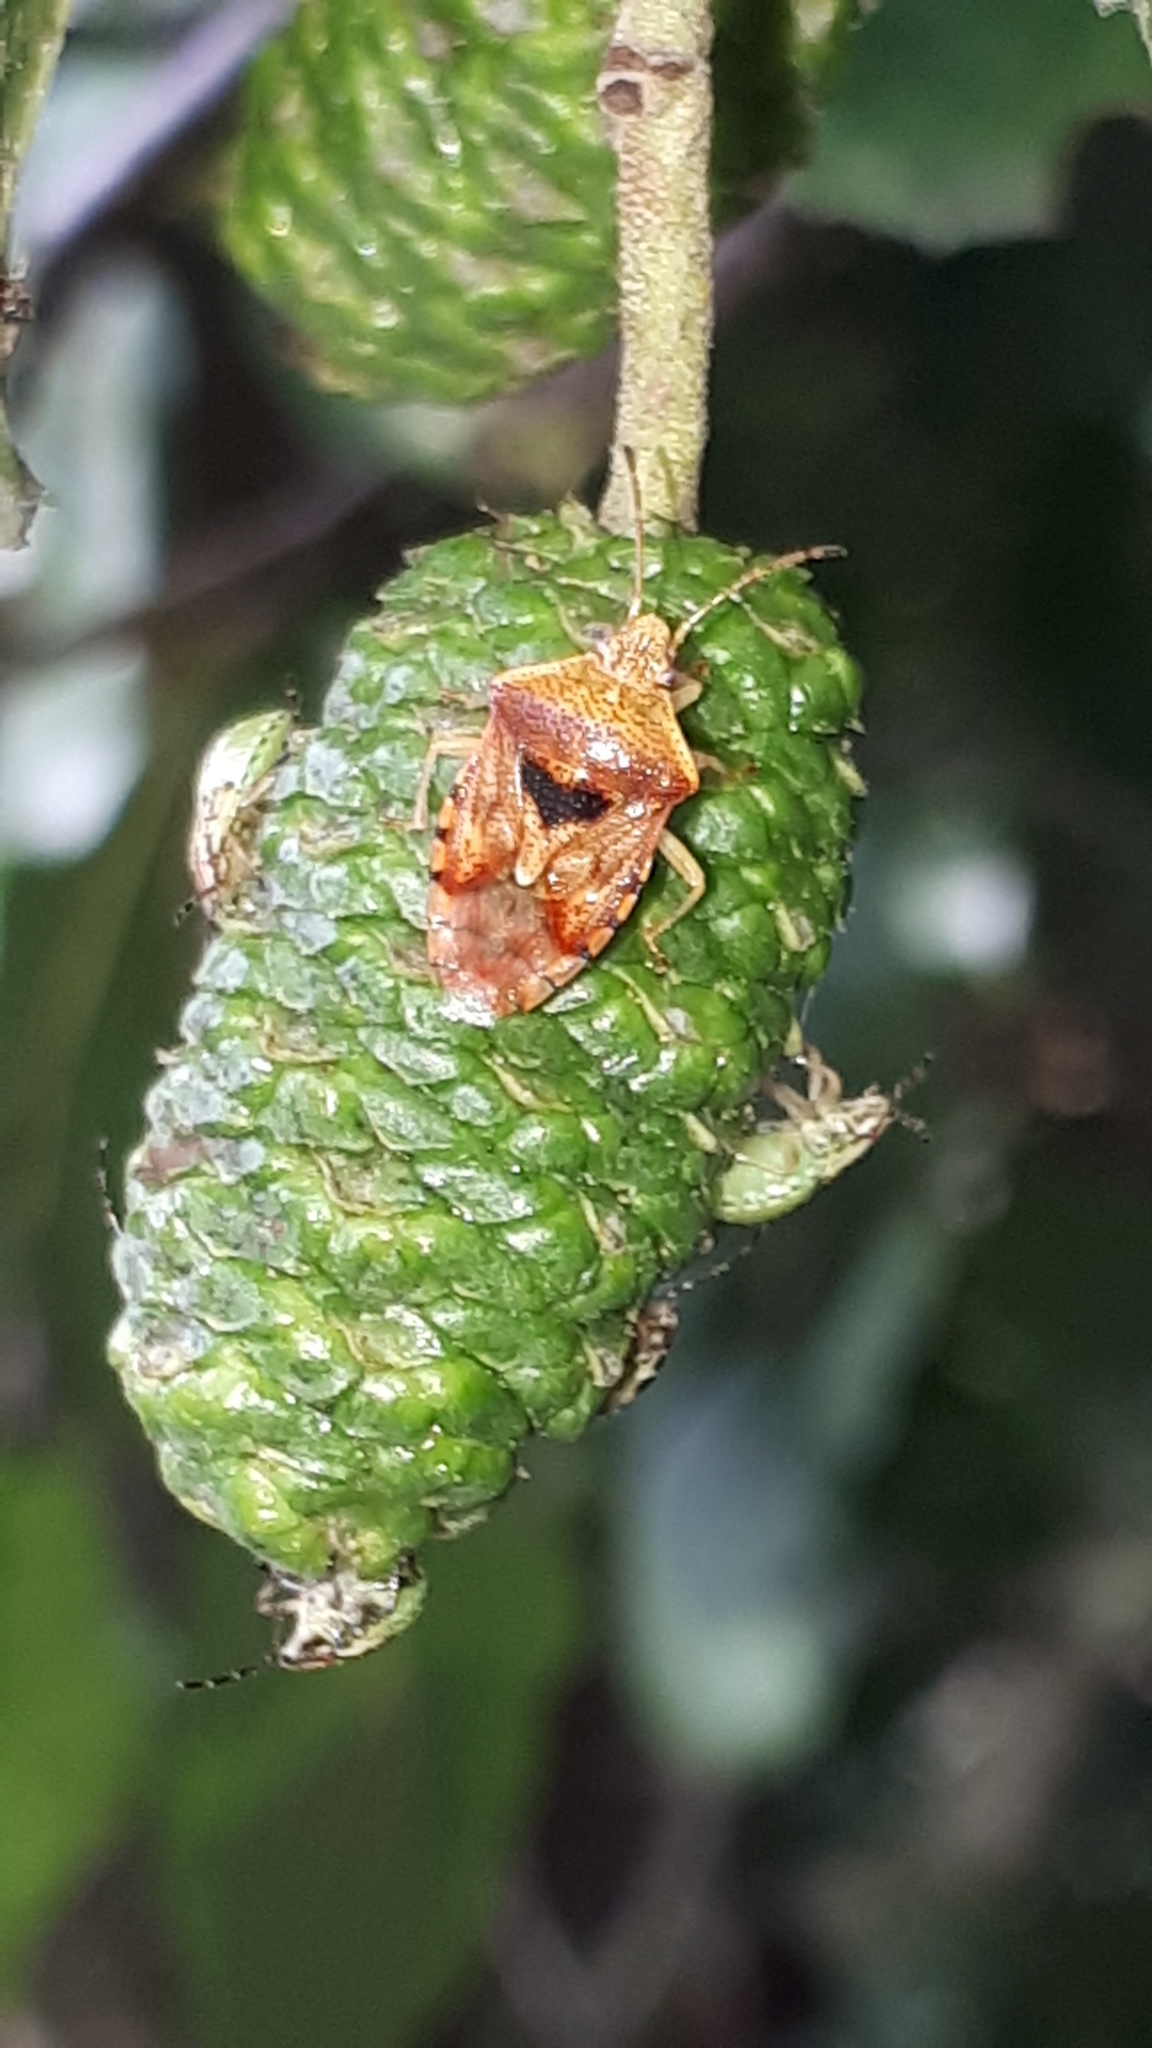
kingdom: Animalia
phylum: Arthropoda
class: Insecta
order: Hemiptera
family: Acanthosomatidae
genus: Elasmucha
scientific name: Elasmucha grisea
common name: Parent bug
